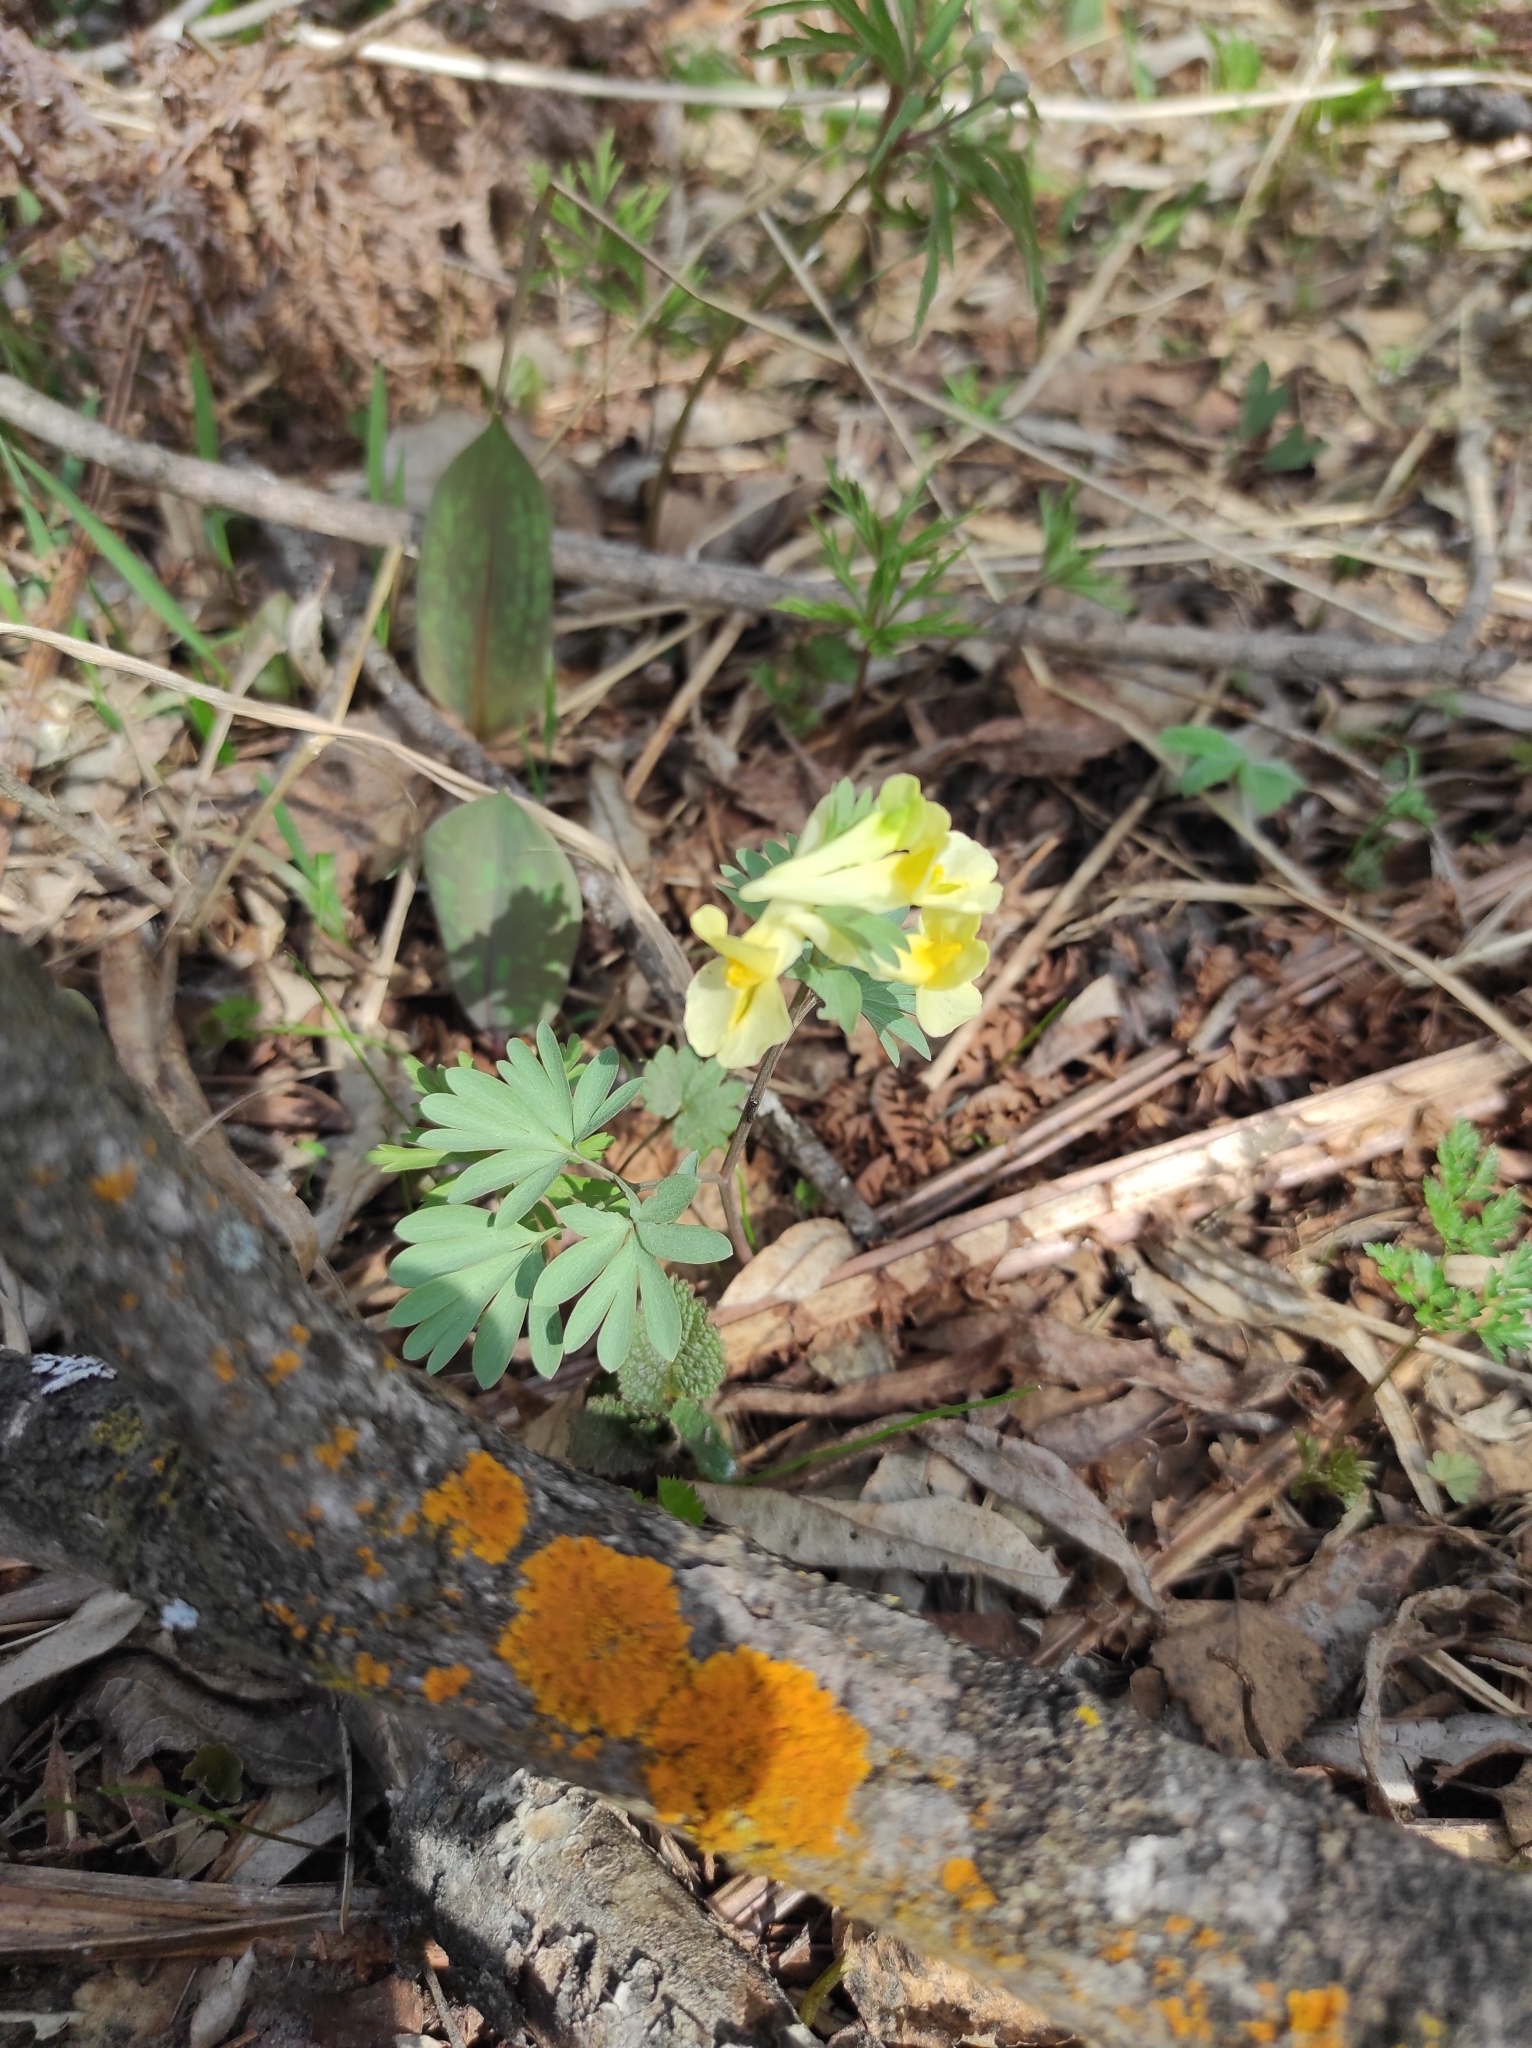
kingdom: Plantae
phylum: Tracheophyta
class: Magnoliopsida
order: Ranunculales
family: Papaveraceae
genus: Corydalis
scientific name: Corydalis bracteata
